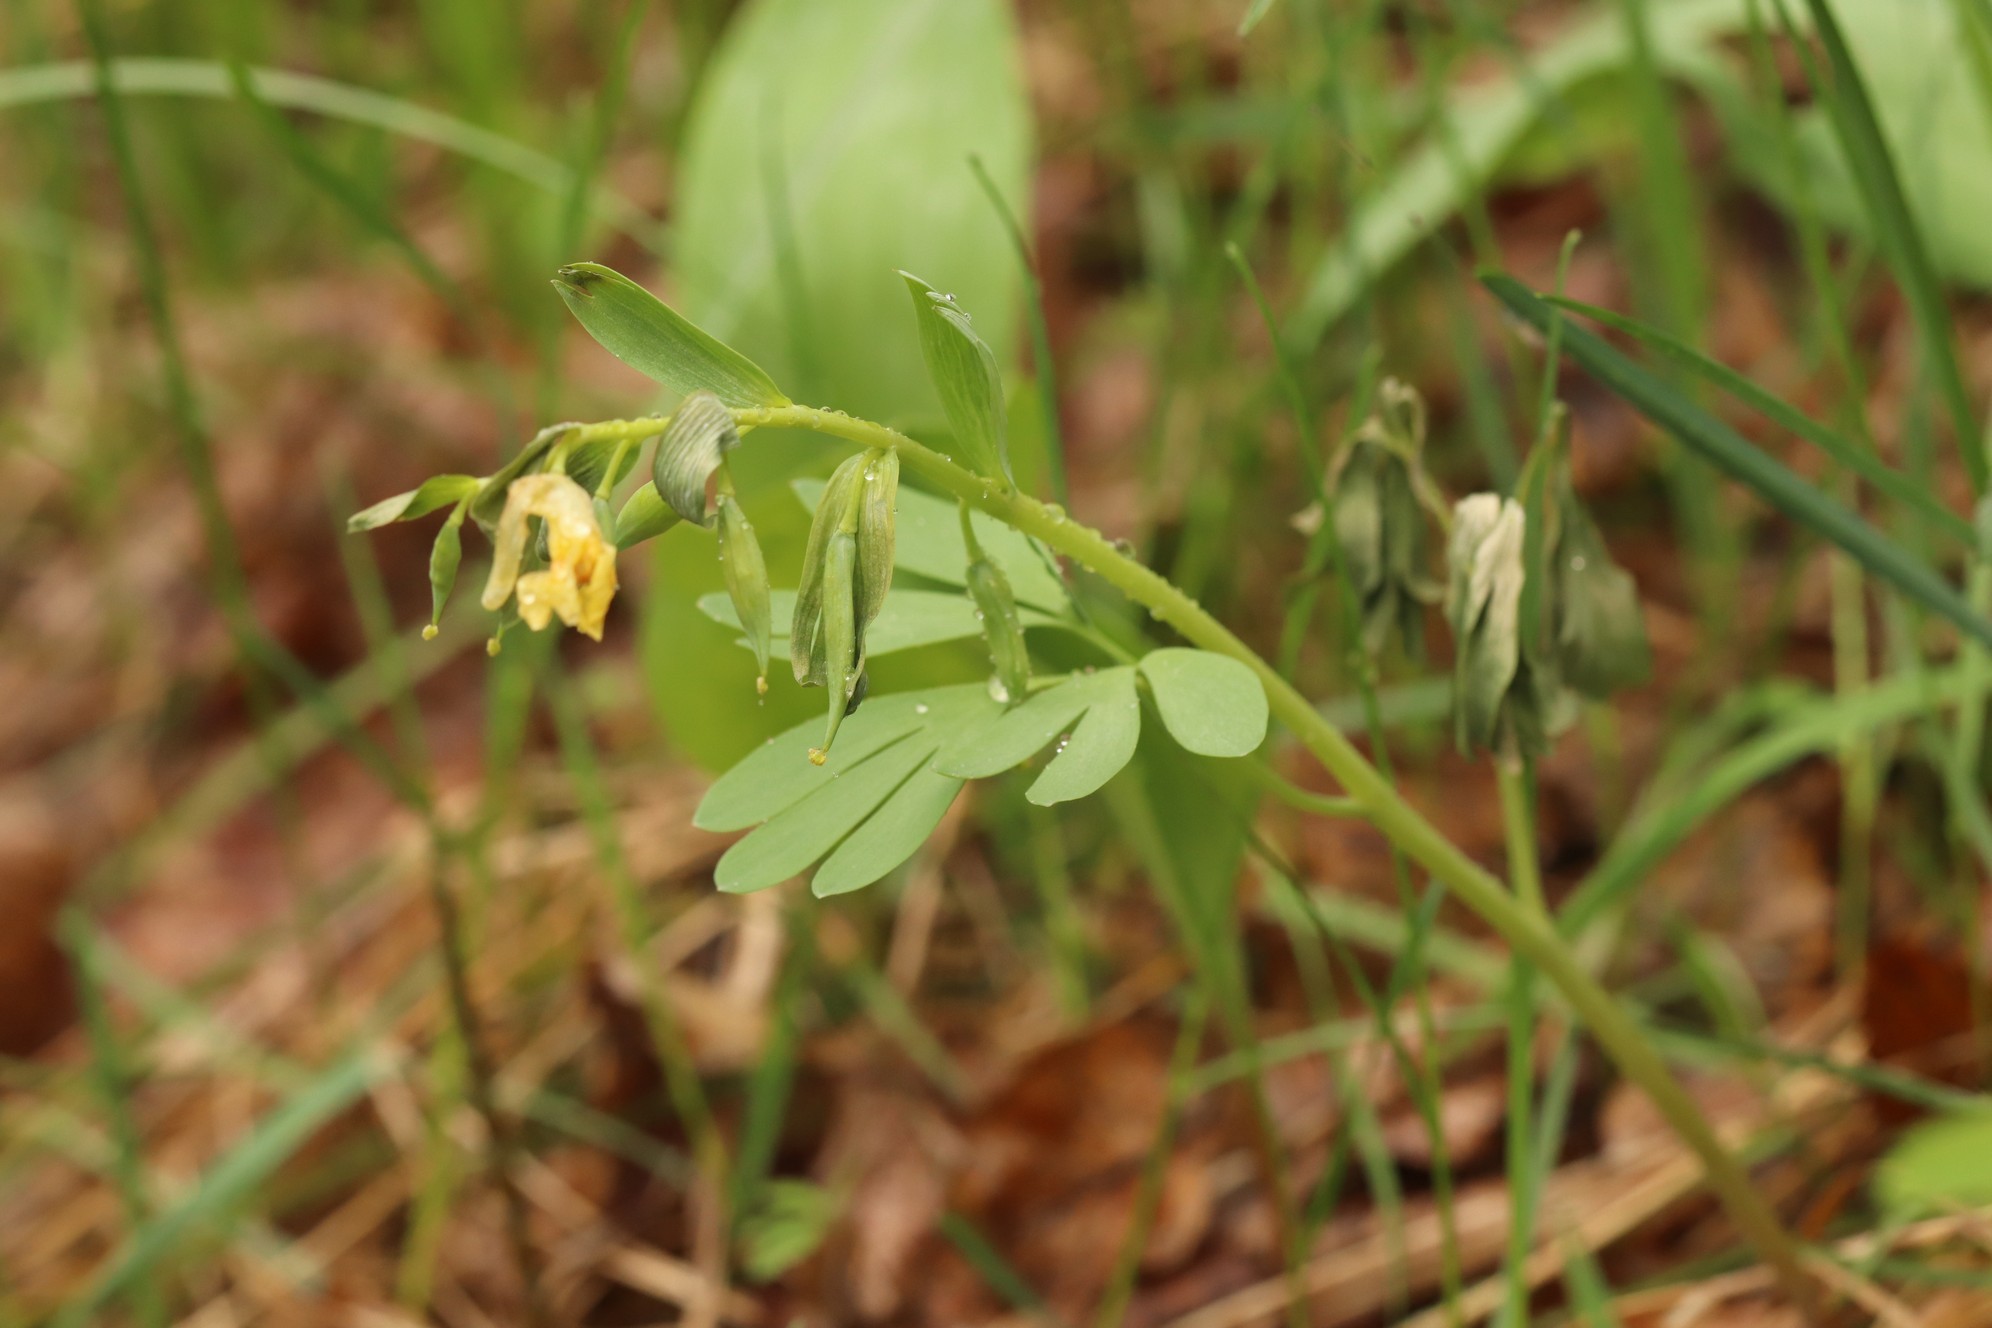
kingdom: Plantae
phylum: Tracheophyta
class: Magnoliopsida
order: Ranunculales
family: Papaveraceae
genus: Corydalis
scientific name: Corydalis bracteata
